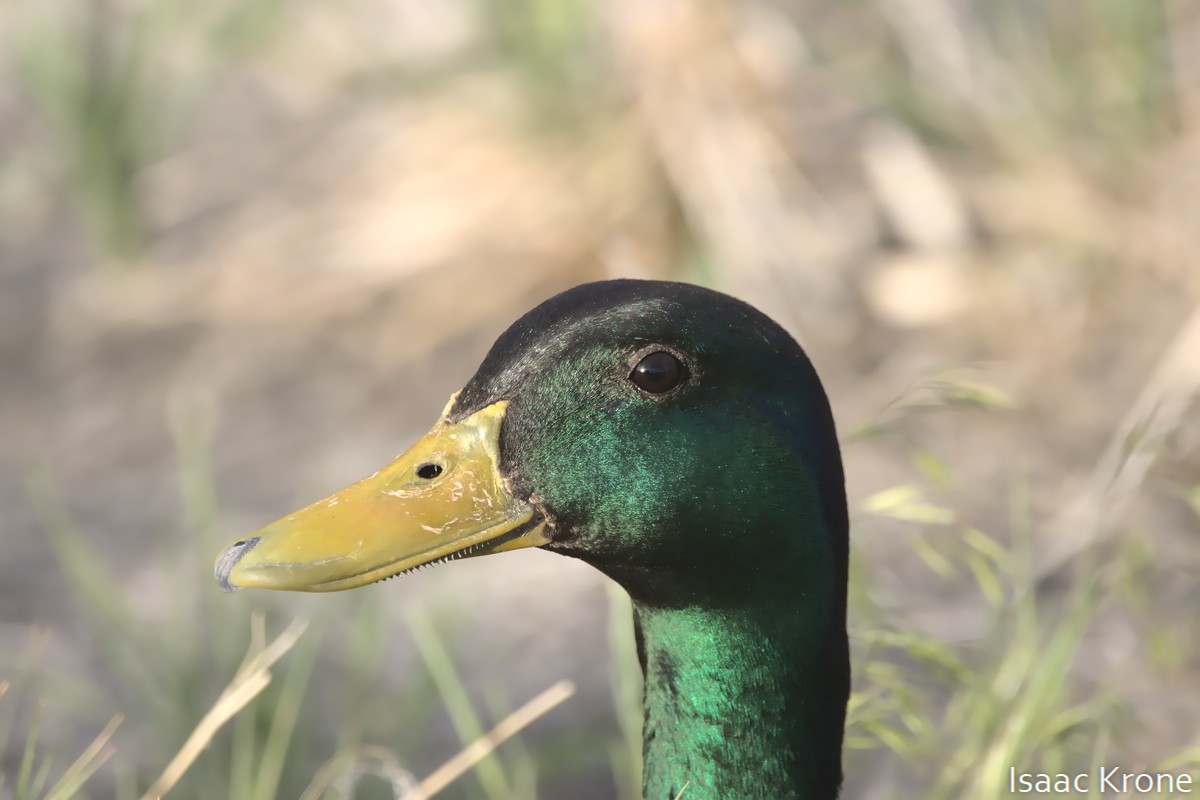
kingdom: Animalia
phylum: Chordata
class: Aves
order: Anseriformes
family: Anatidae
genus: Anas
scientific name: Anas platyrhynchos
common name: Mallard
